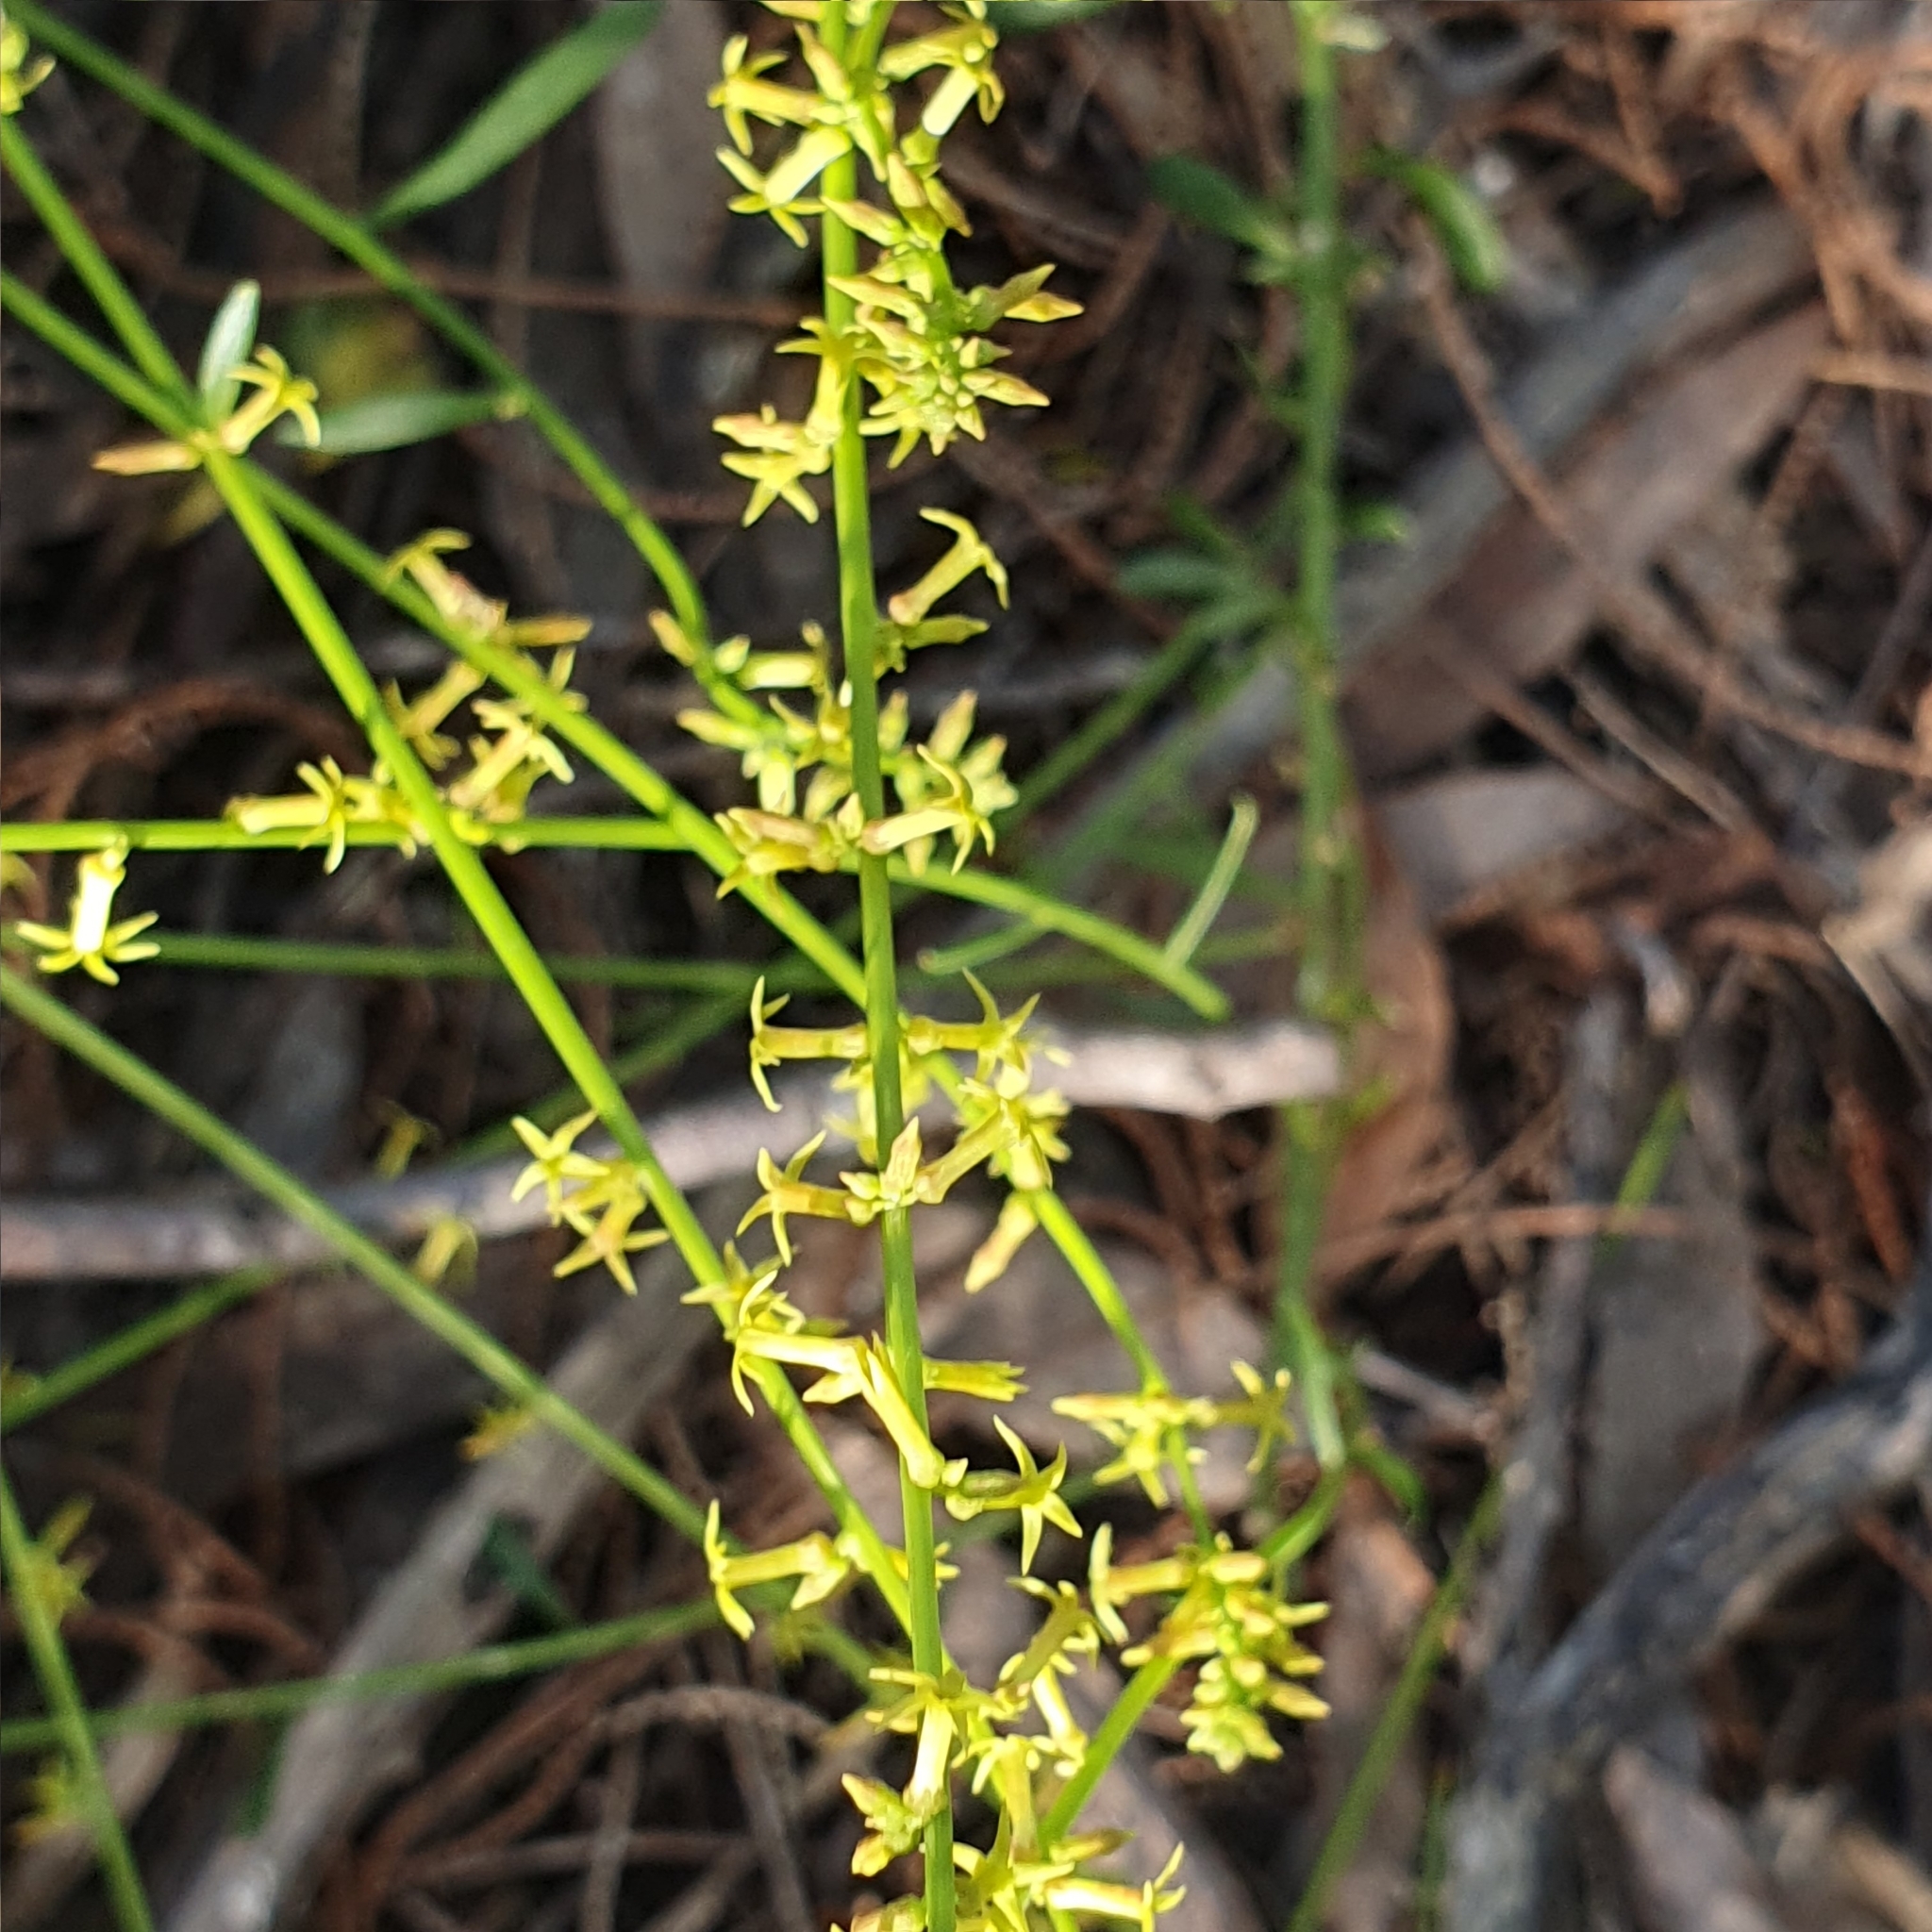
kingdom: Plantae
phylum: Tracheophyta
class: Magnoliopsida
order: Celastrales
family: Celastraceae
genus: Stackhousia
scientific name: Stackhousia viminea
